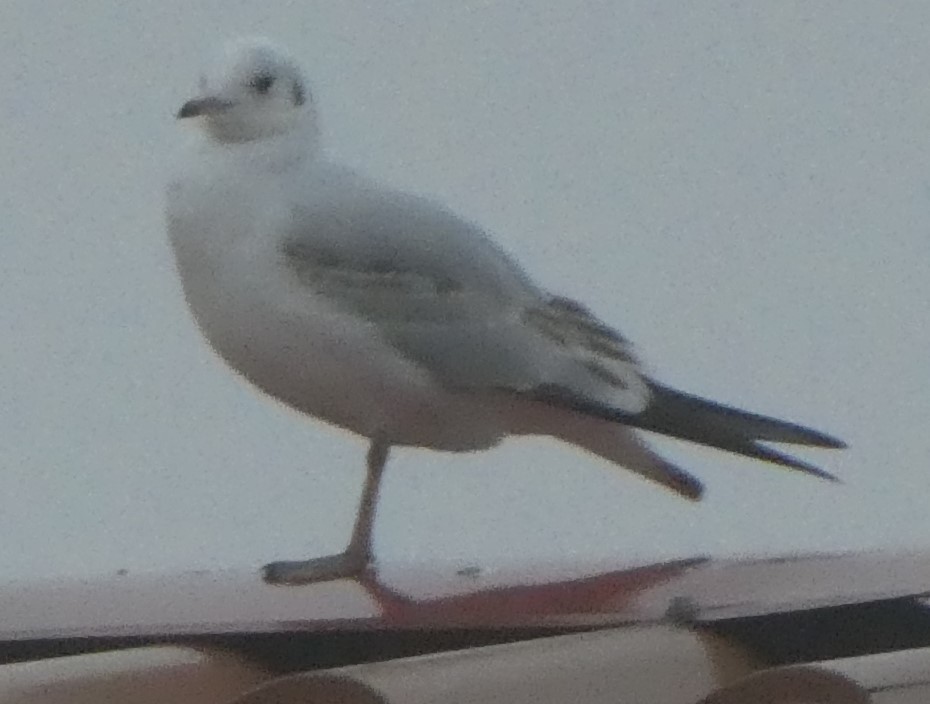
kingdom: Animalia
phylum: Chordata
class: Aves
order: Charadriiformes
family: Laridae
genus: Chroicocephalus
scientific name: Chroicocephalus ridibundus
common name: Black-headed gull
